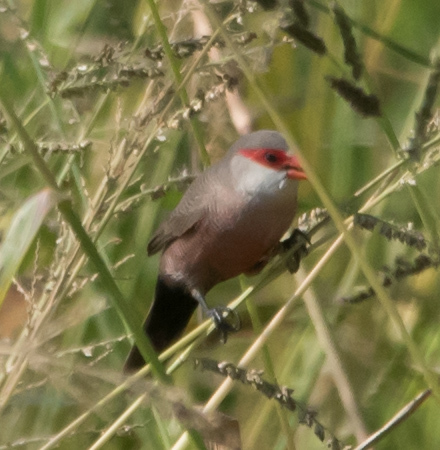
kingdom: Animalia
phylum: Chordata
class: Aves
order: Passeriformes
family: Estrildidae
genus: Estrilda
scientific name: Estrilda astrild
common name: Common waxbill
